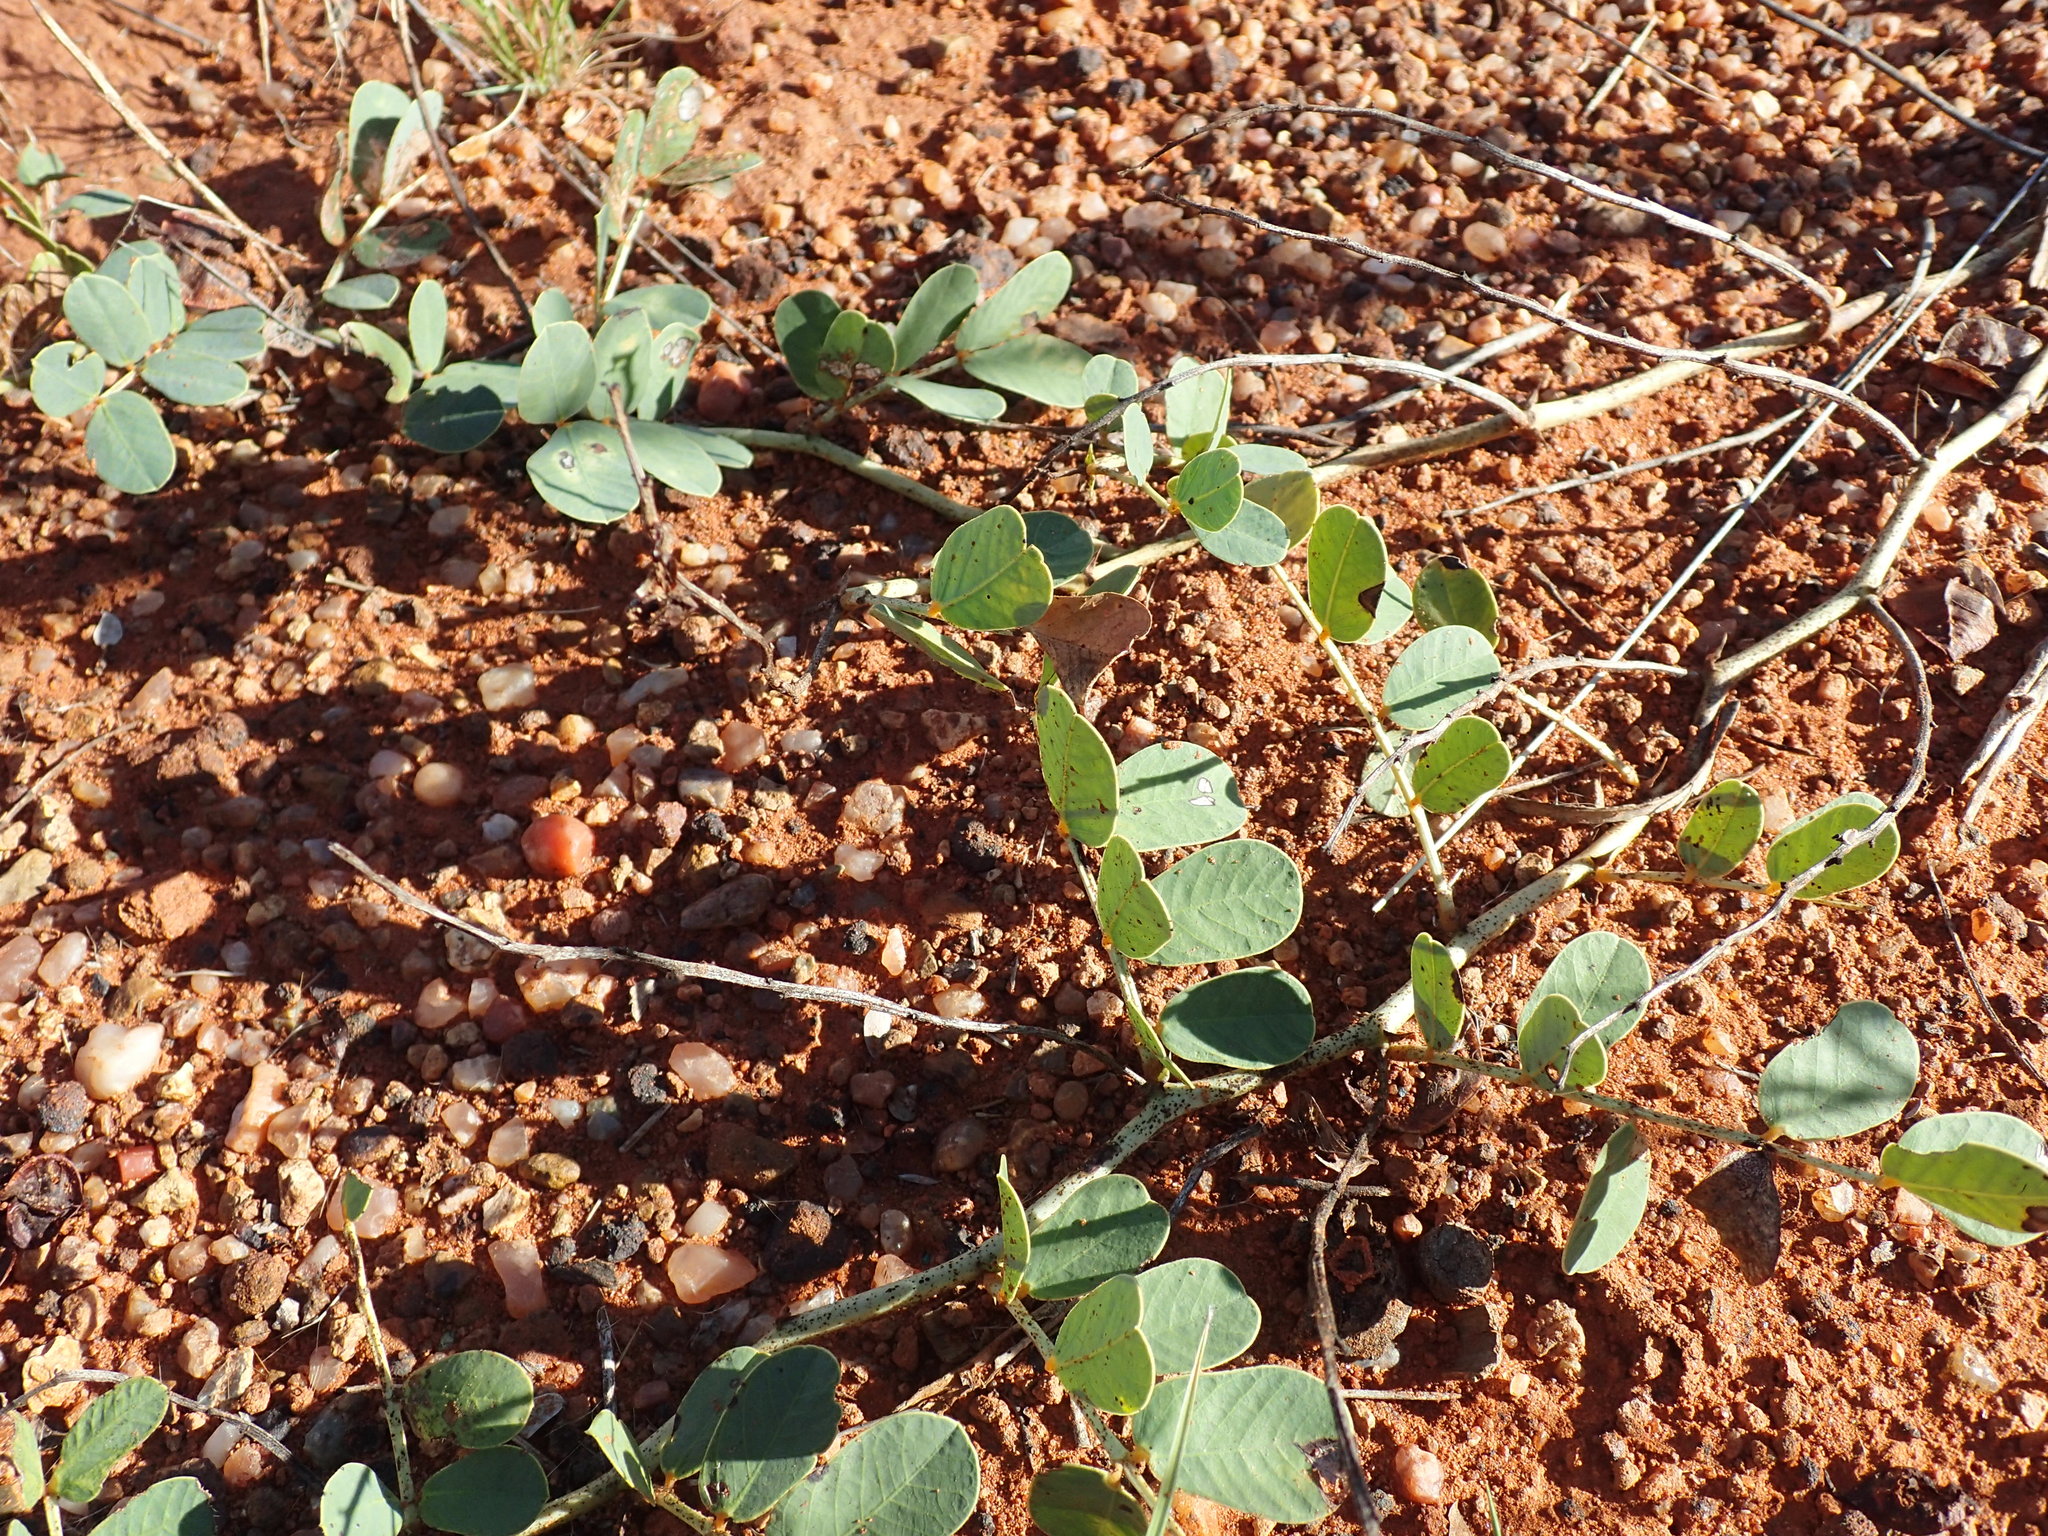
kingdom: Plantae
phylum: Tracheophyta
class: Magnoliopsida
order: Fabales
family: Fabaceae
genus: Senna
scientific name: Senna italica
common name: Port royal senna
